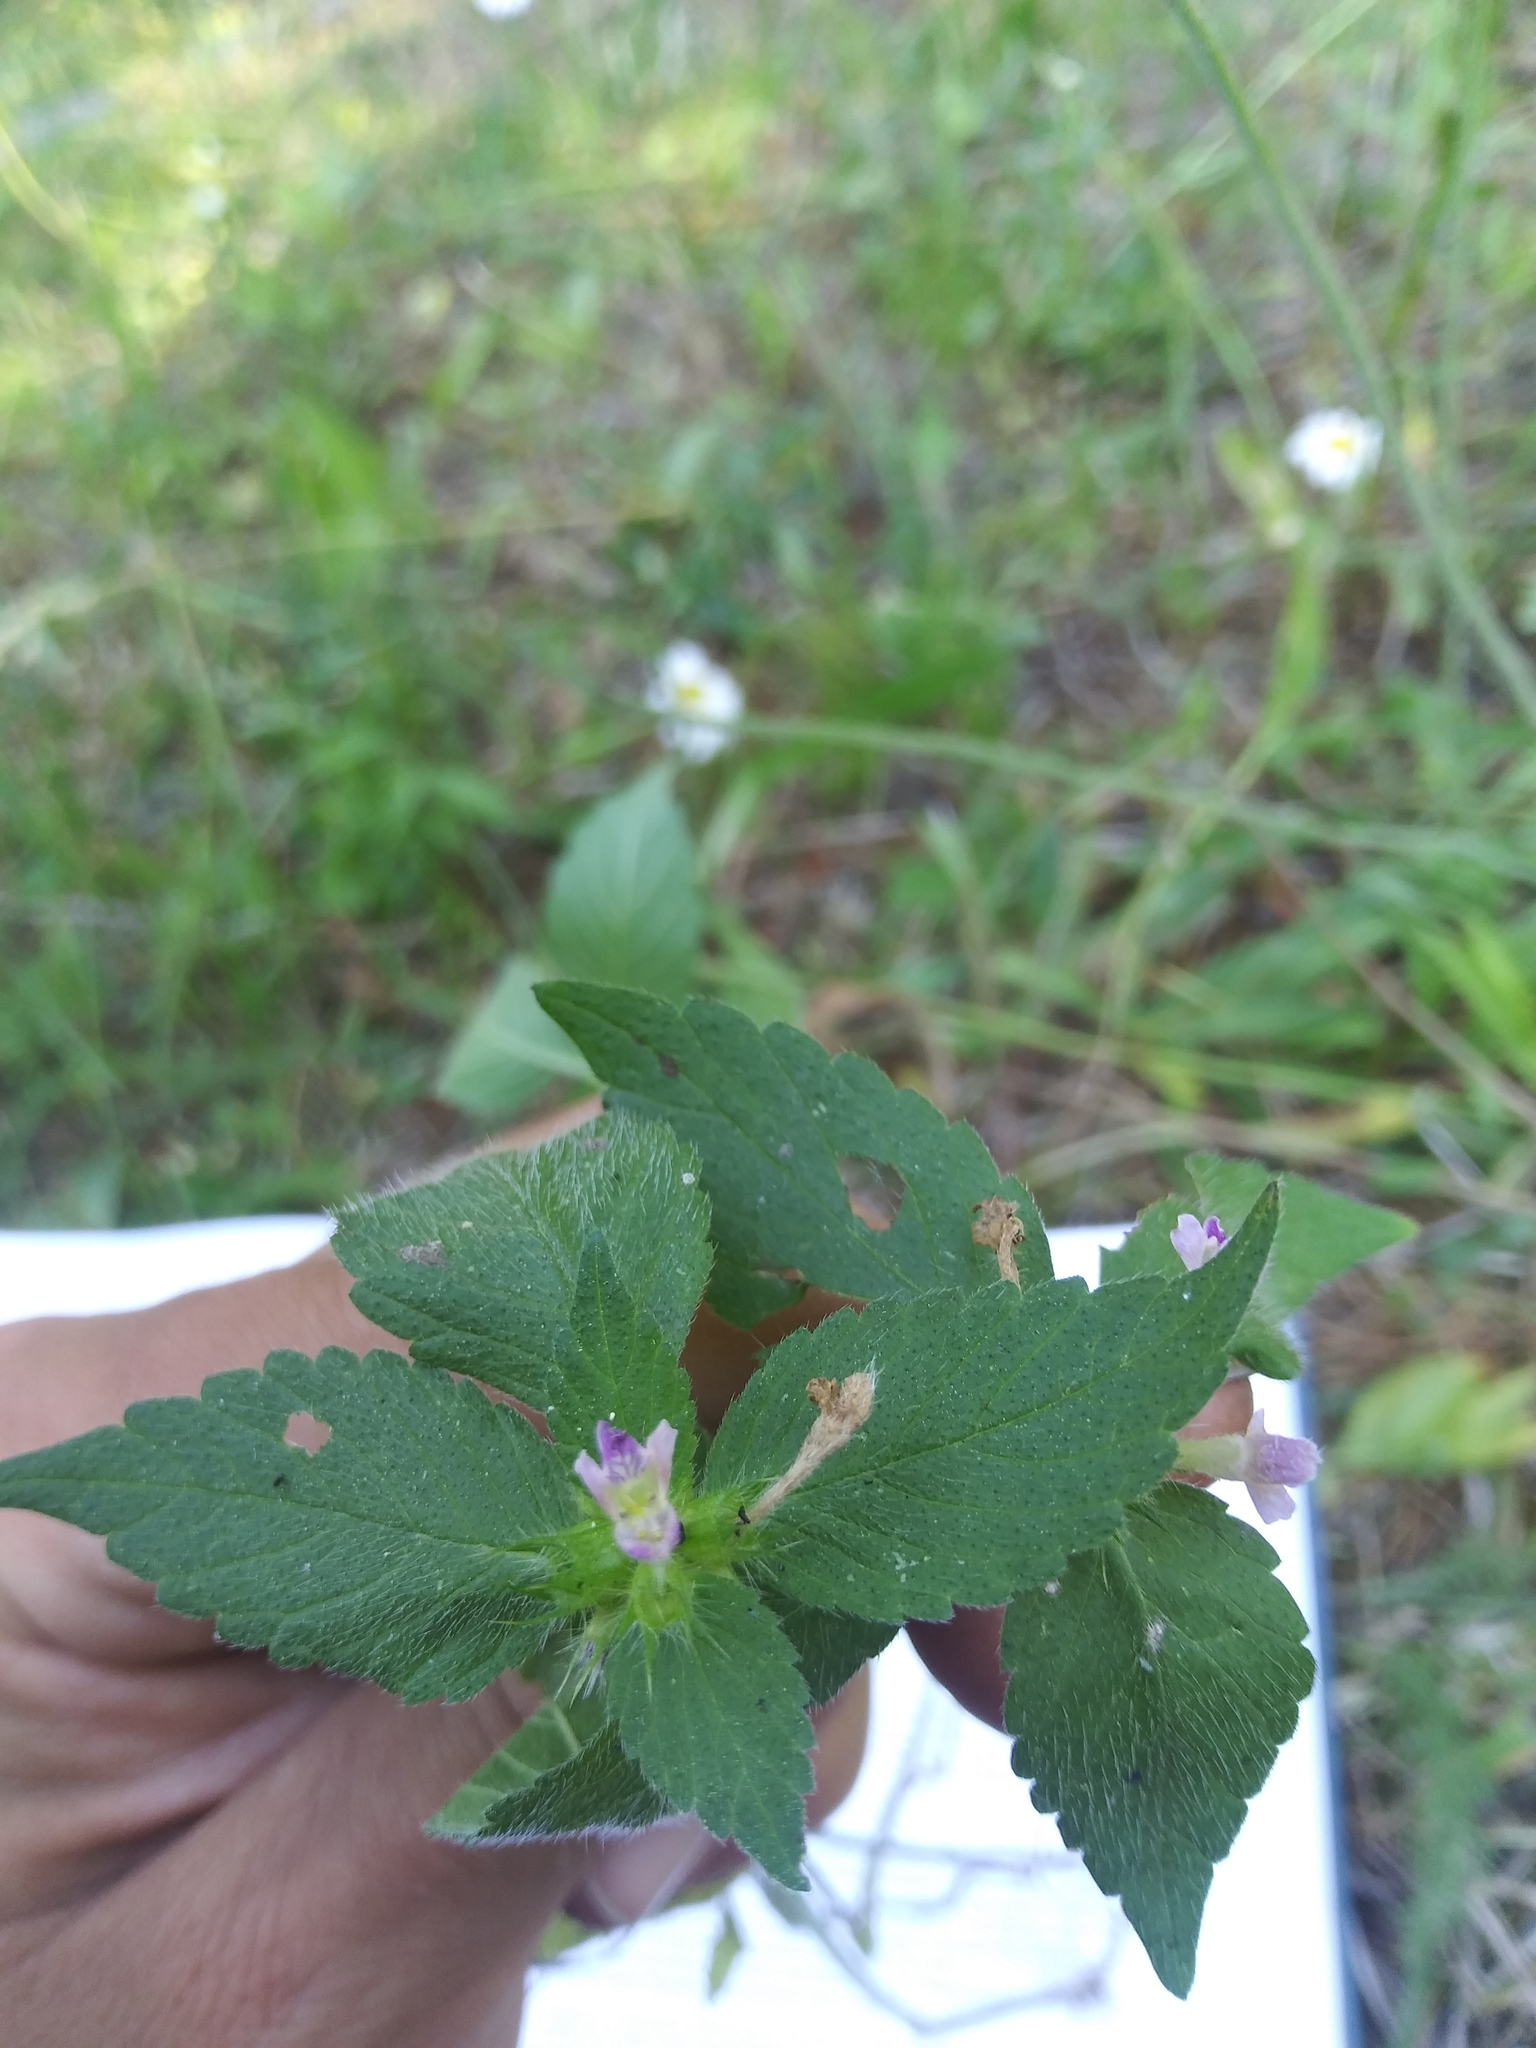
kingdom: Plantae
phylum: Tracheophyta
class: Magnoliopsida
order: Lamiales
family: Lamiaceae
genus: Galeopsis
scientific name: Galeopsis bifida
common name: Bifid hemp-nettle
